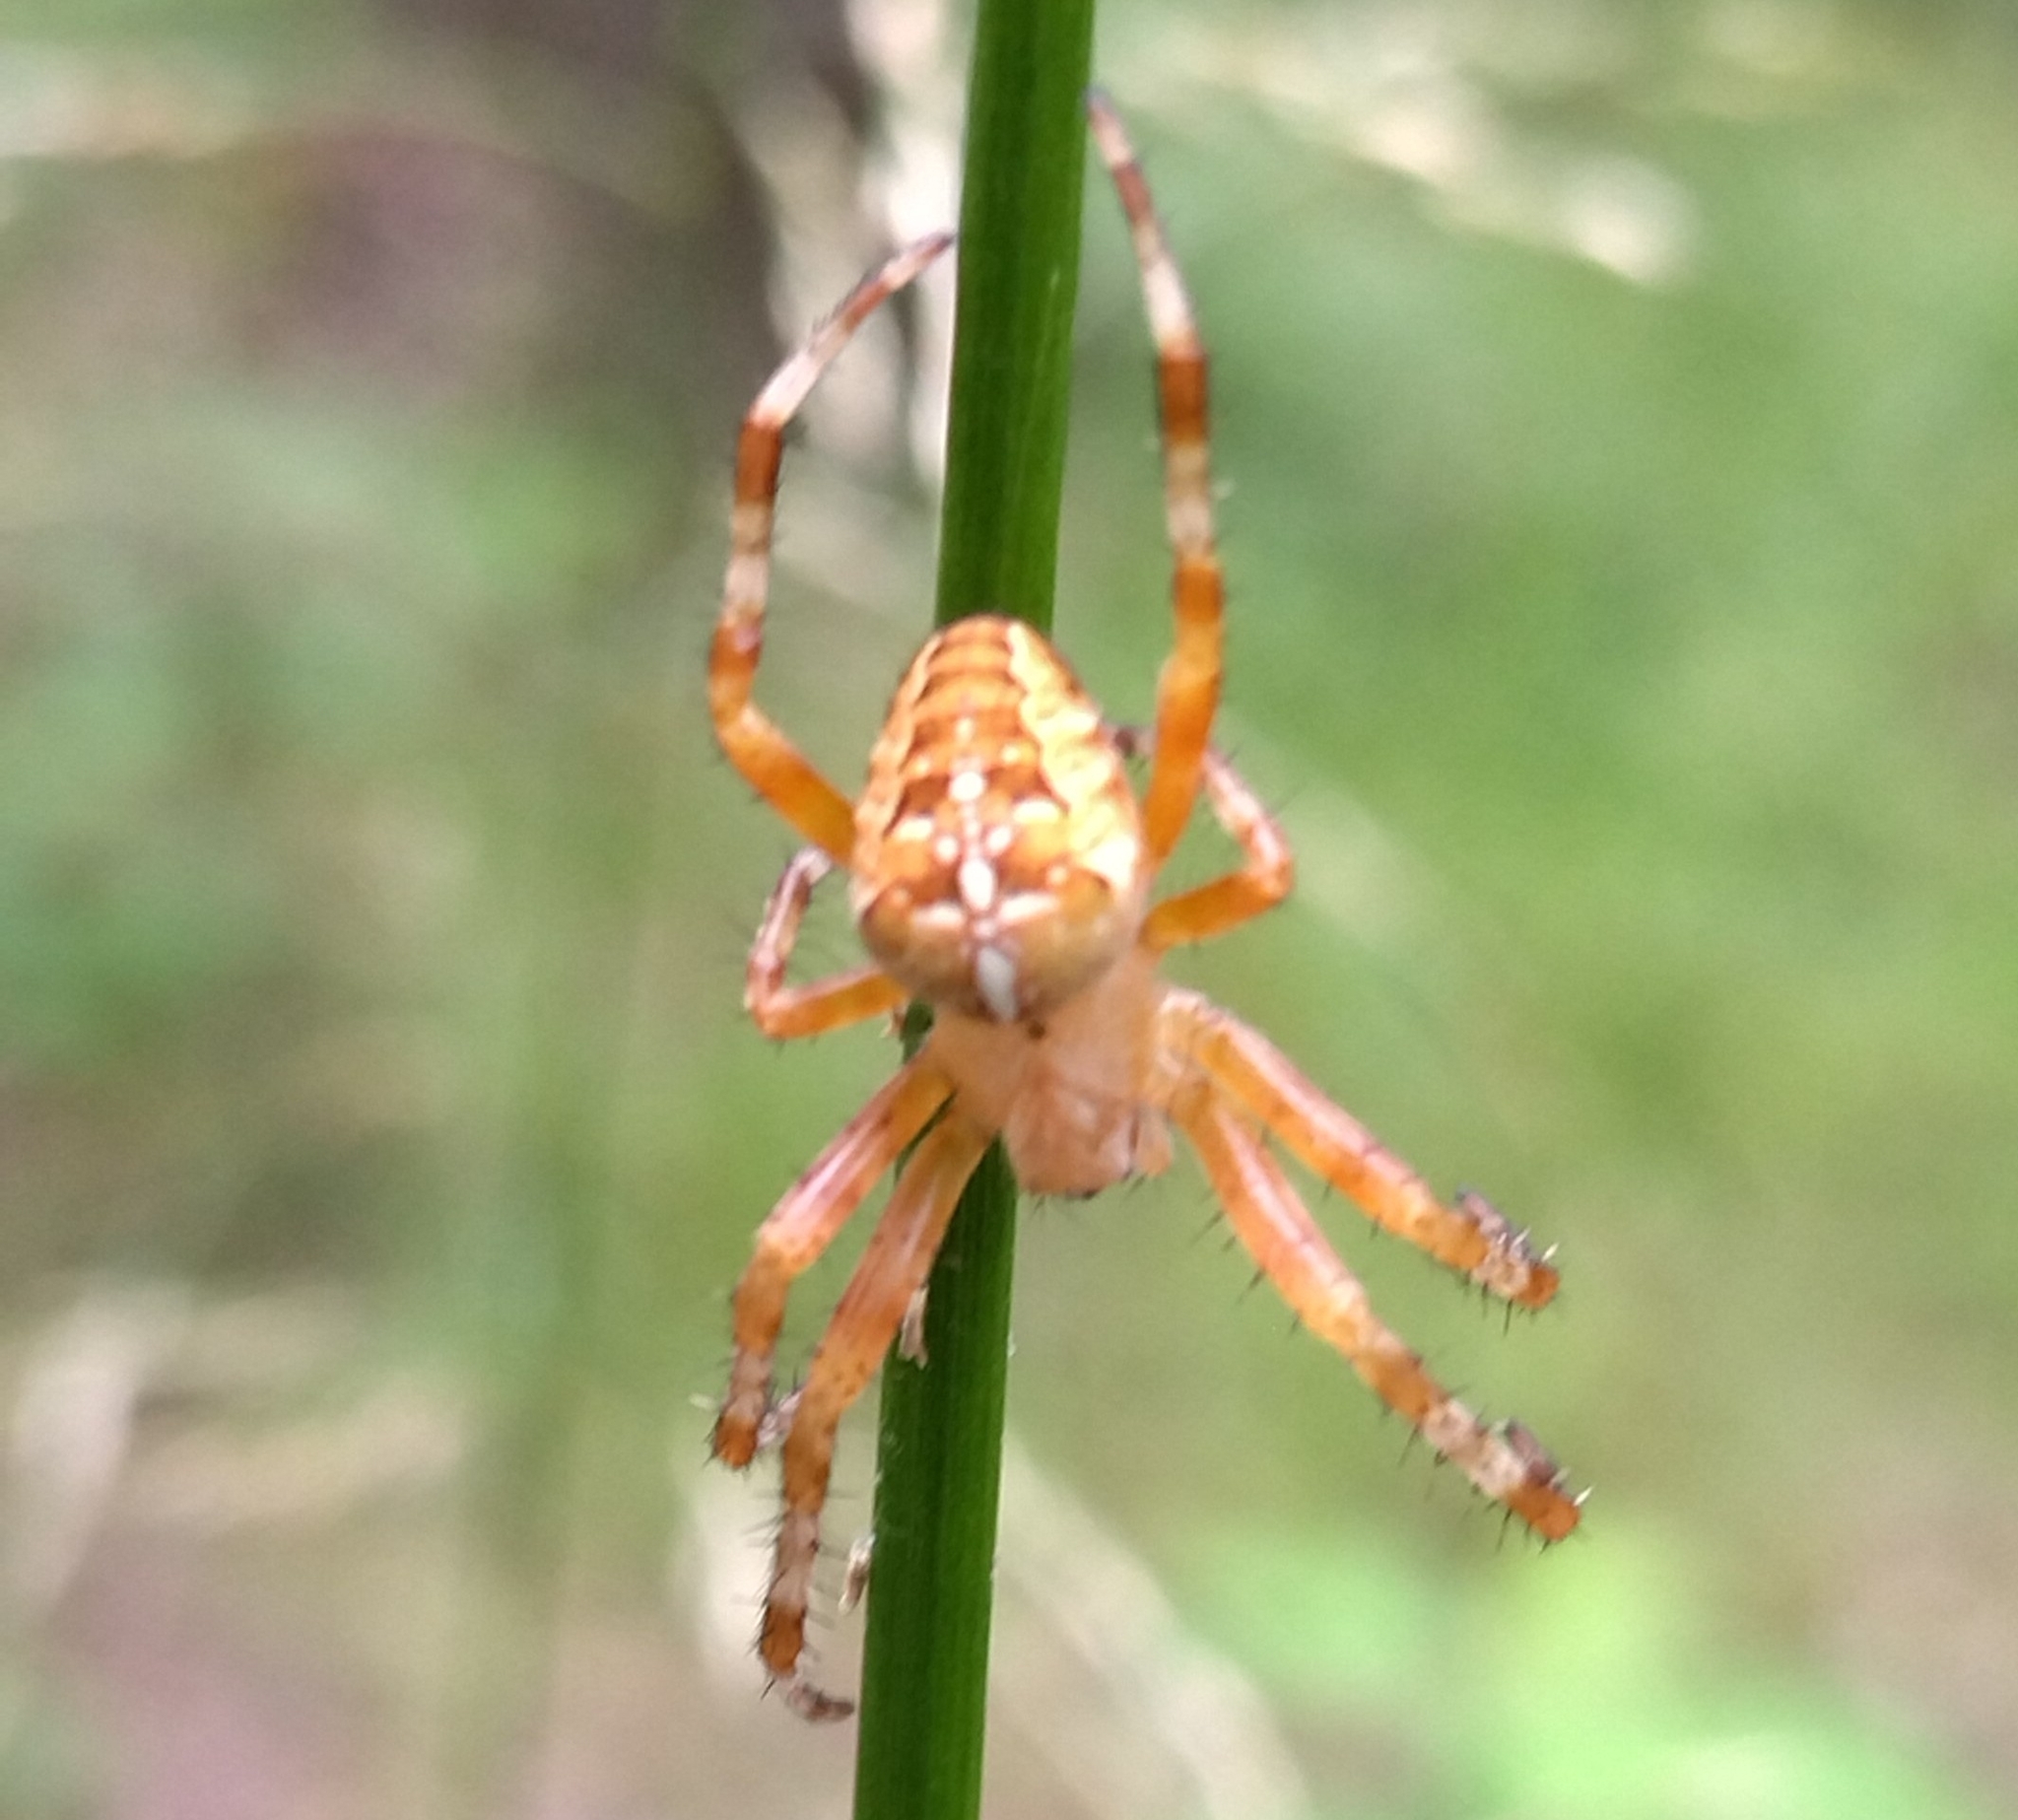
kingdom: Animalia
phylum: Arthropoda
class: Arachnida
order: Araneae
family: Araneidae
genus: Araneus
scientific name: Araneus diadematus
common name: Cross orbweaver
